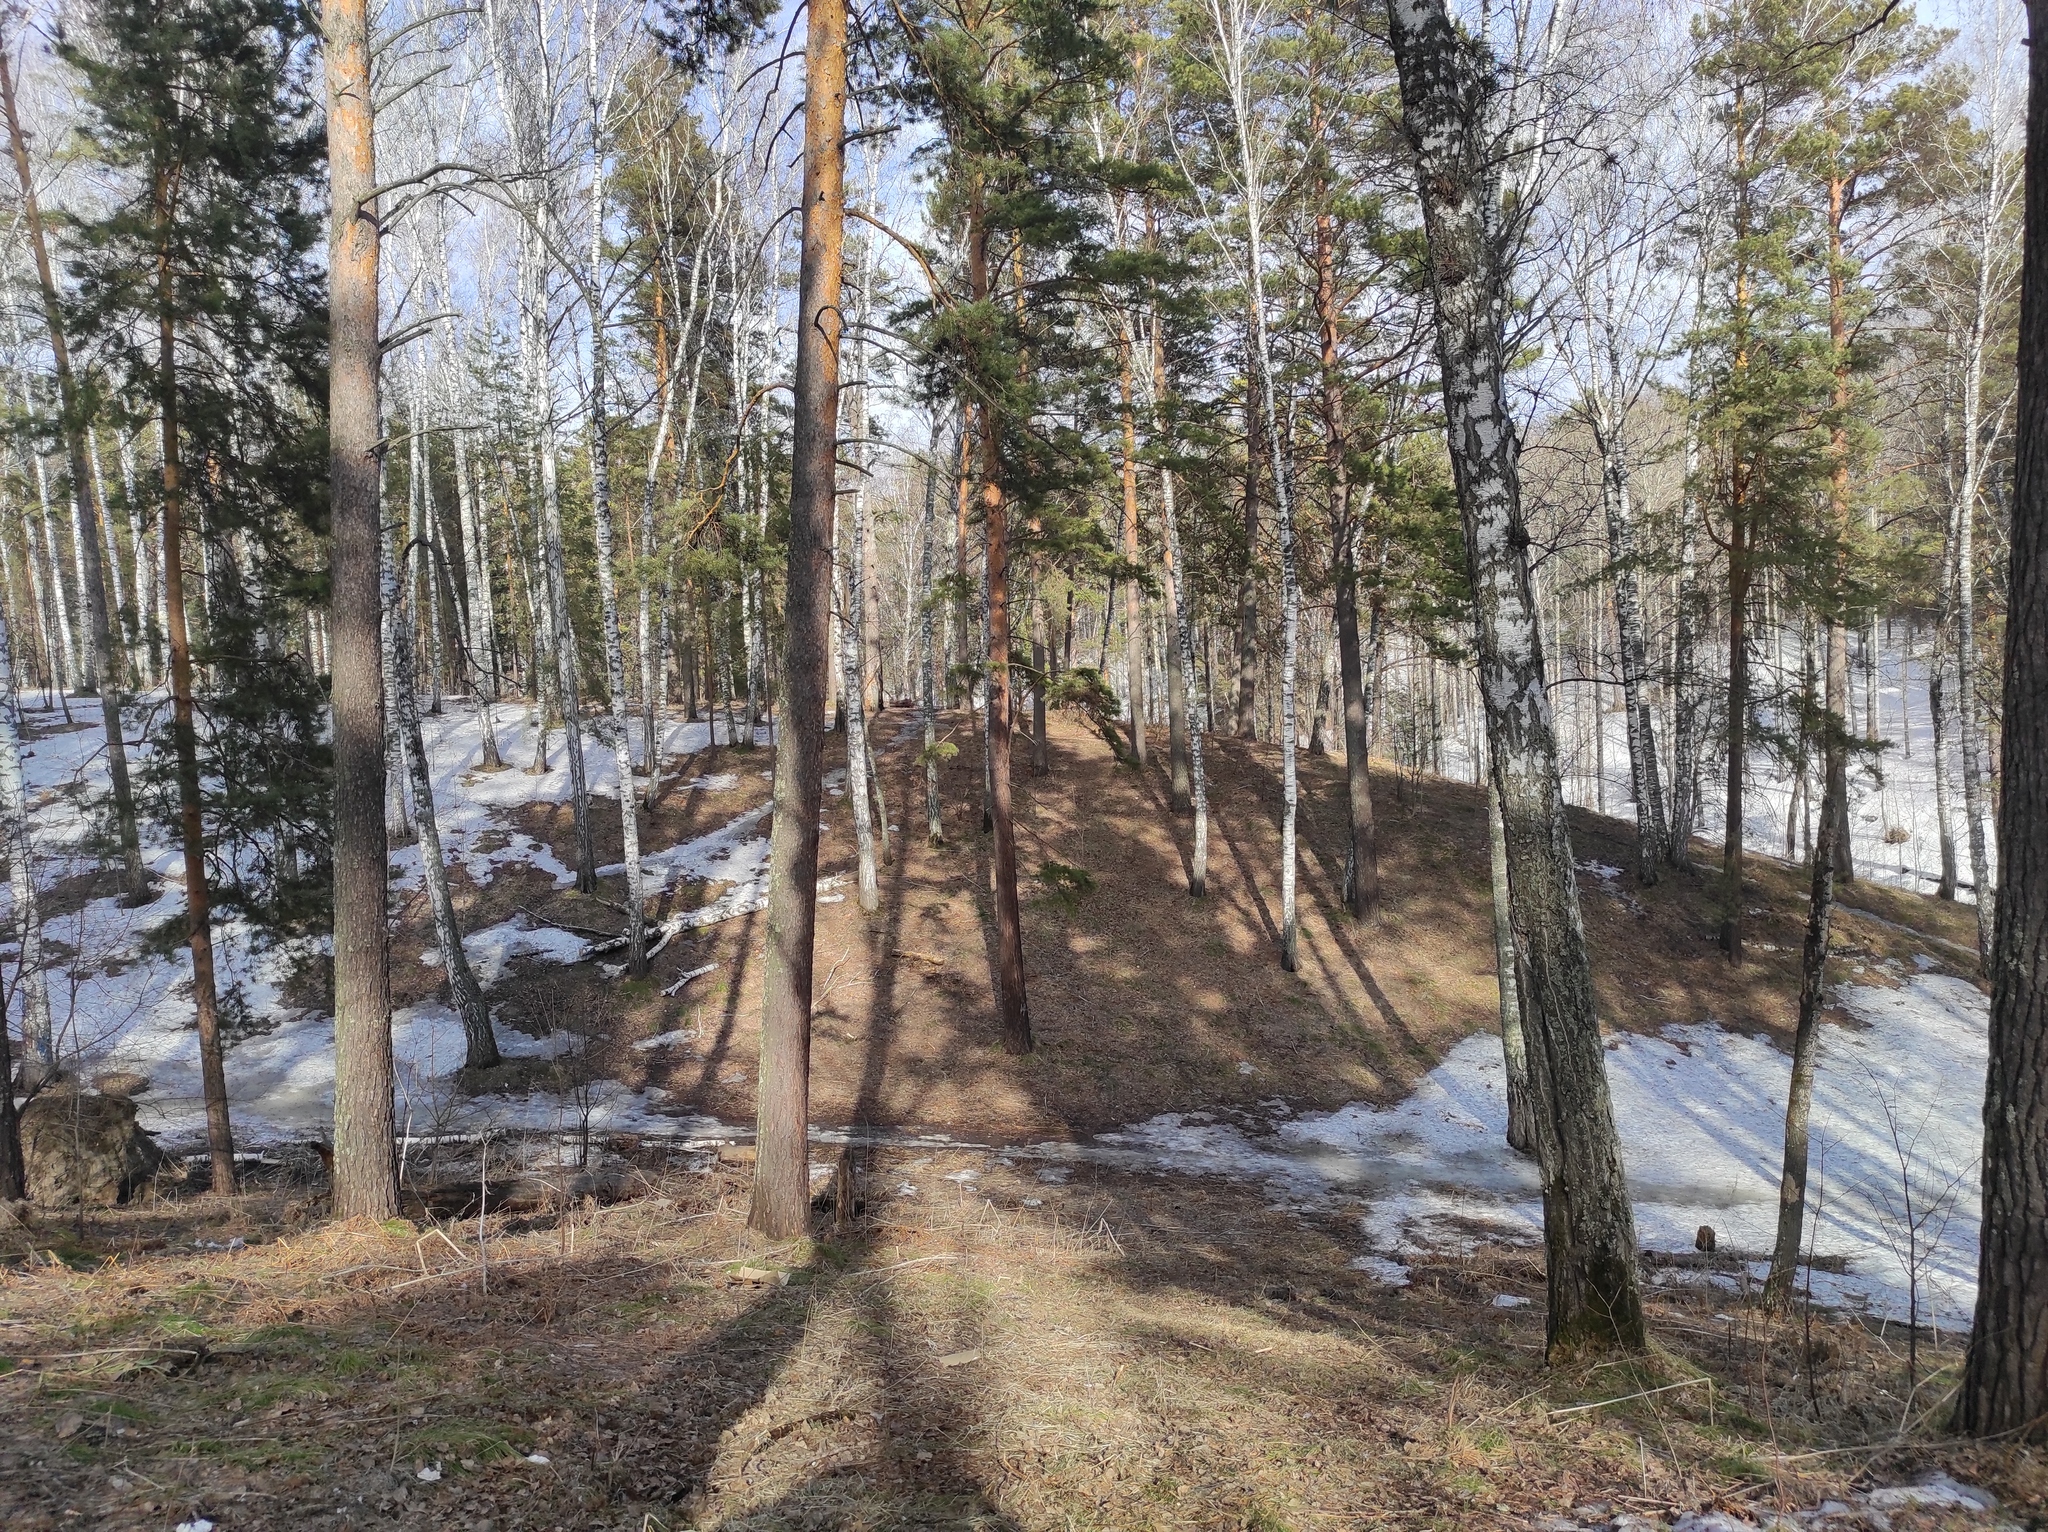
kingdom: Plantae
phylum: Tracheophyta
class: Pinopsida
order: Pinales
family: Pinaceae
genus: Pinus
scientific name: Pinus sylvestris
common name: Scots pine
